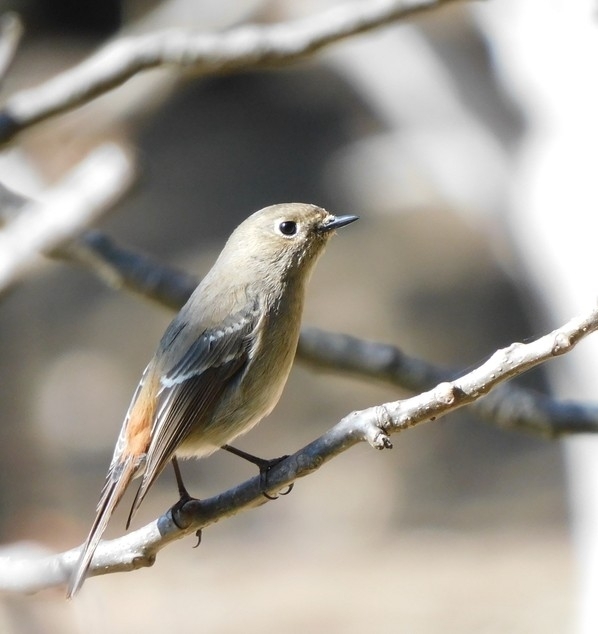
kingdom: Animalia
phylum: Chordata
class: Aves
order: Passeriformes
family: Muscicapidae
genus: Phoenicurus
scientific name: Phoenicurus coeruleocephala
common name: Blue-capped redstart
